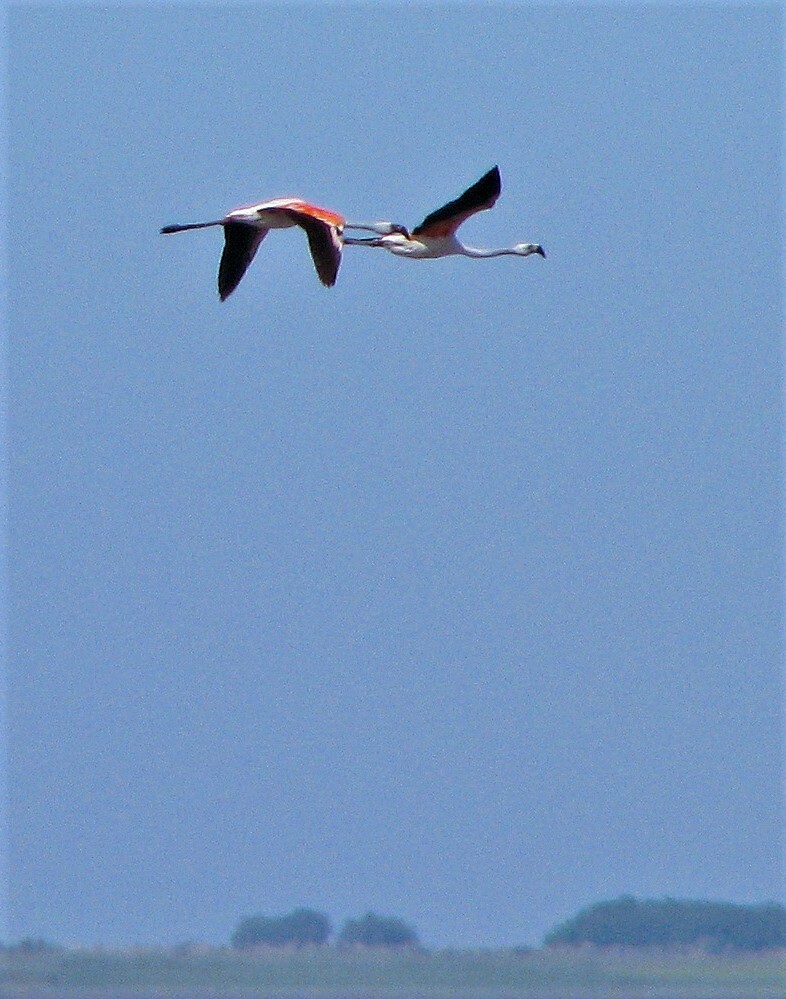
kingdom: Animalia
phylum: Chordata
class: Aves
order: Phoenicopteriformes
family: Phoenicopteridae
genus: Phoenicopterus
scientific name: Phoenicopterus chilensis
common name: Chilean flamingo
